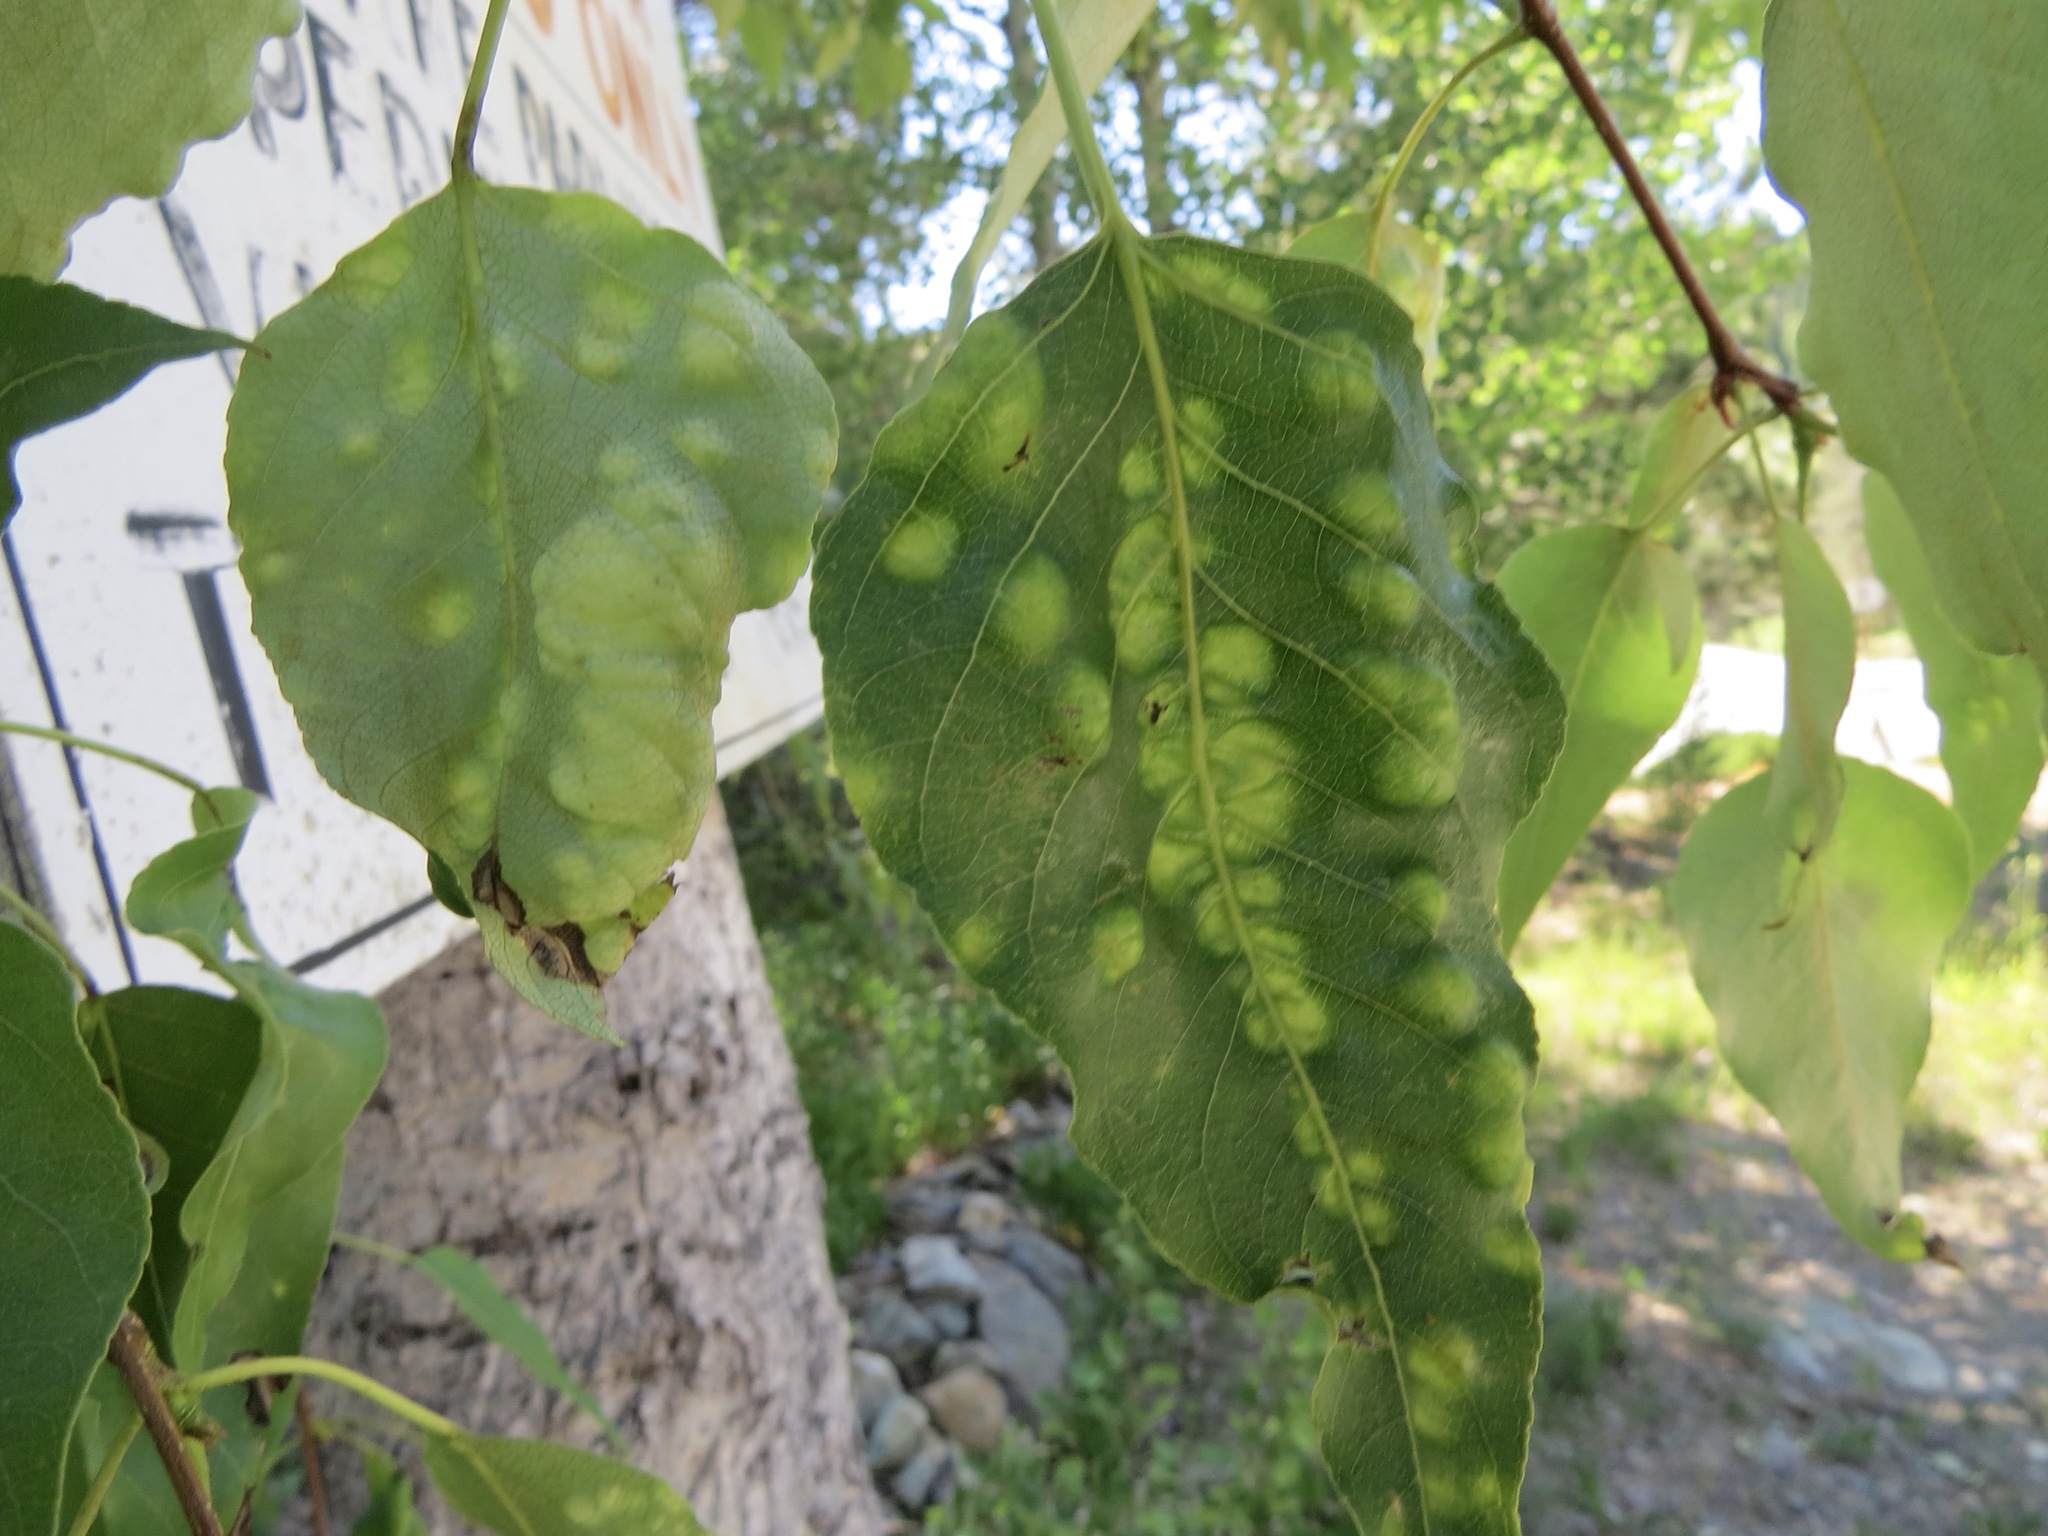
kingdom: Fungi
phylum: Ascomycota
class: Taphrinomycetes
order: Taphrinales
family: Taphrinaceae
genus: Taphrina
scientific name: Taphrina populi-salicis
